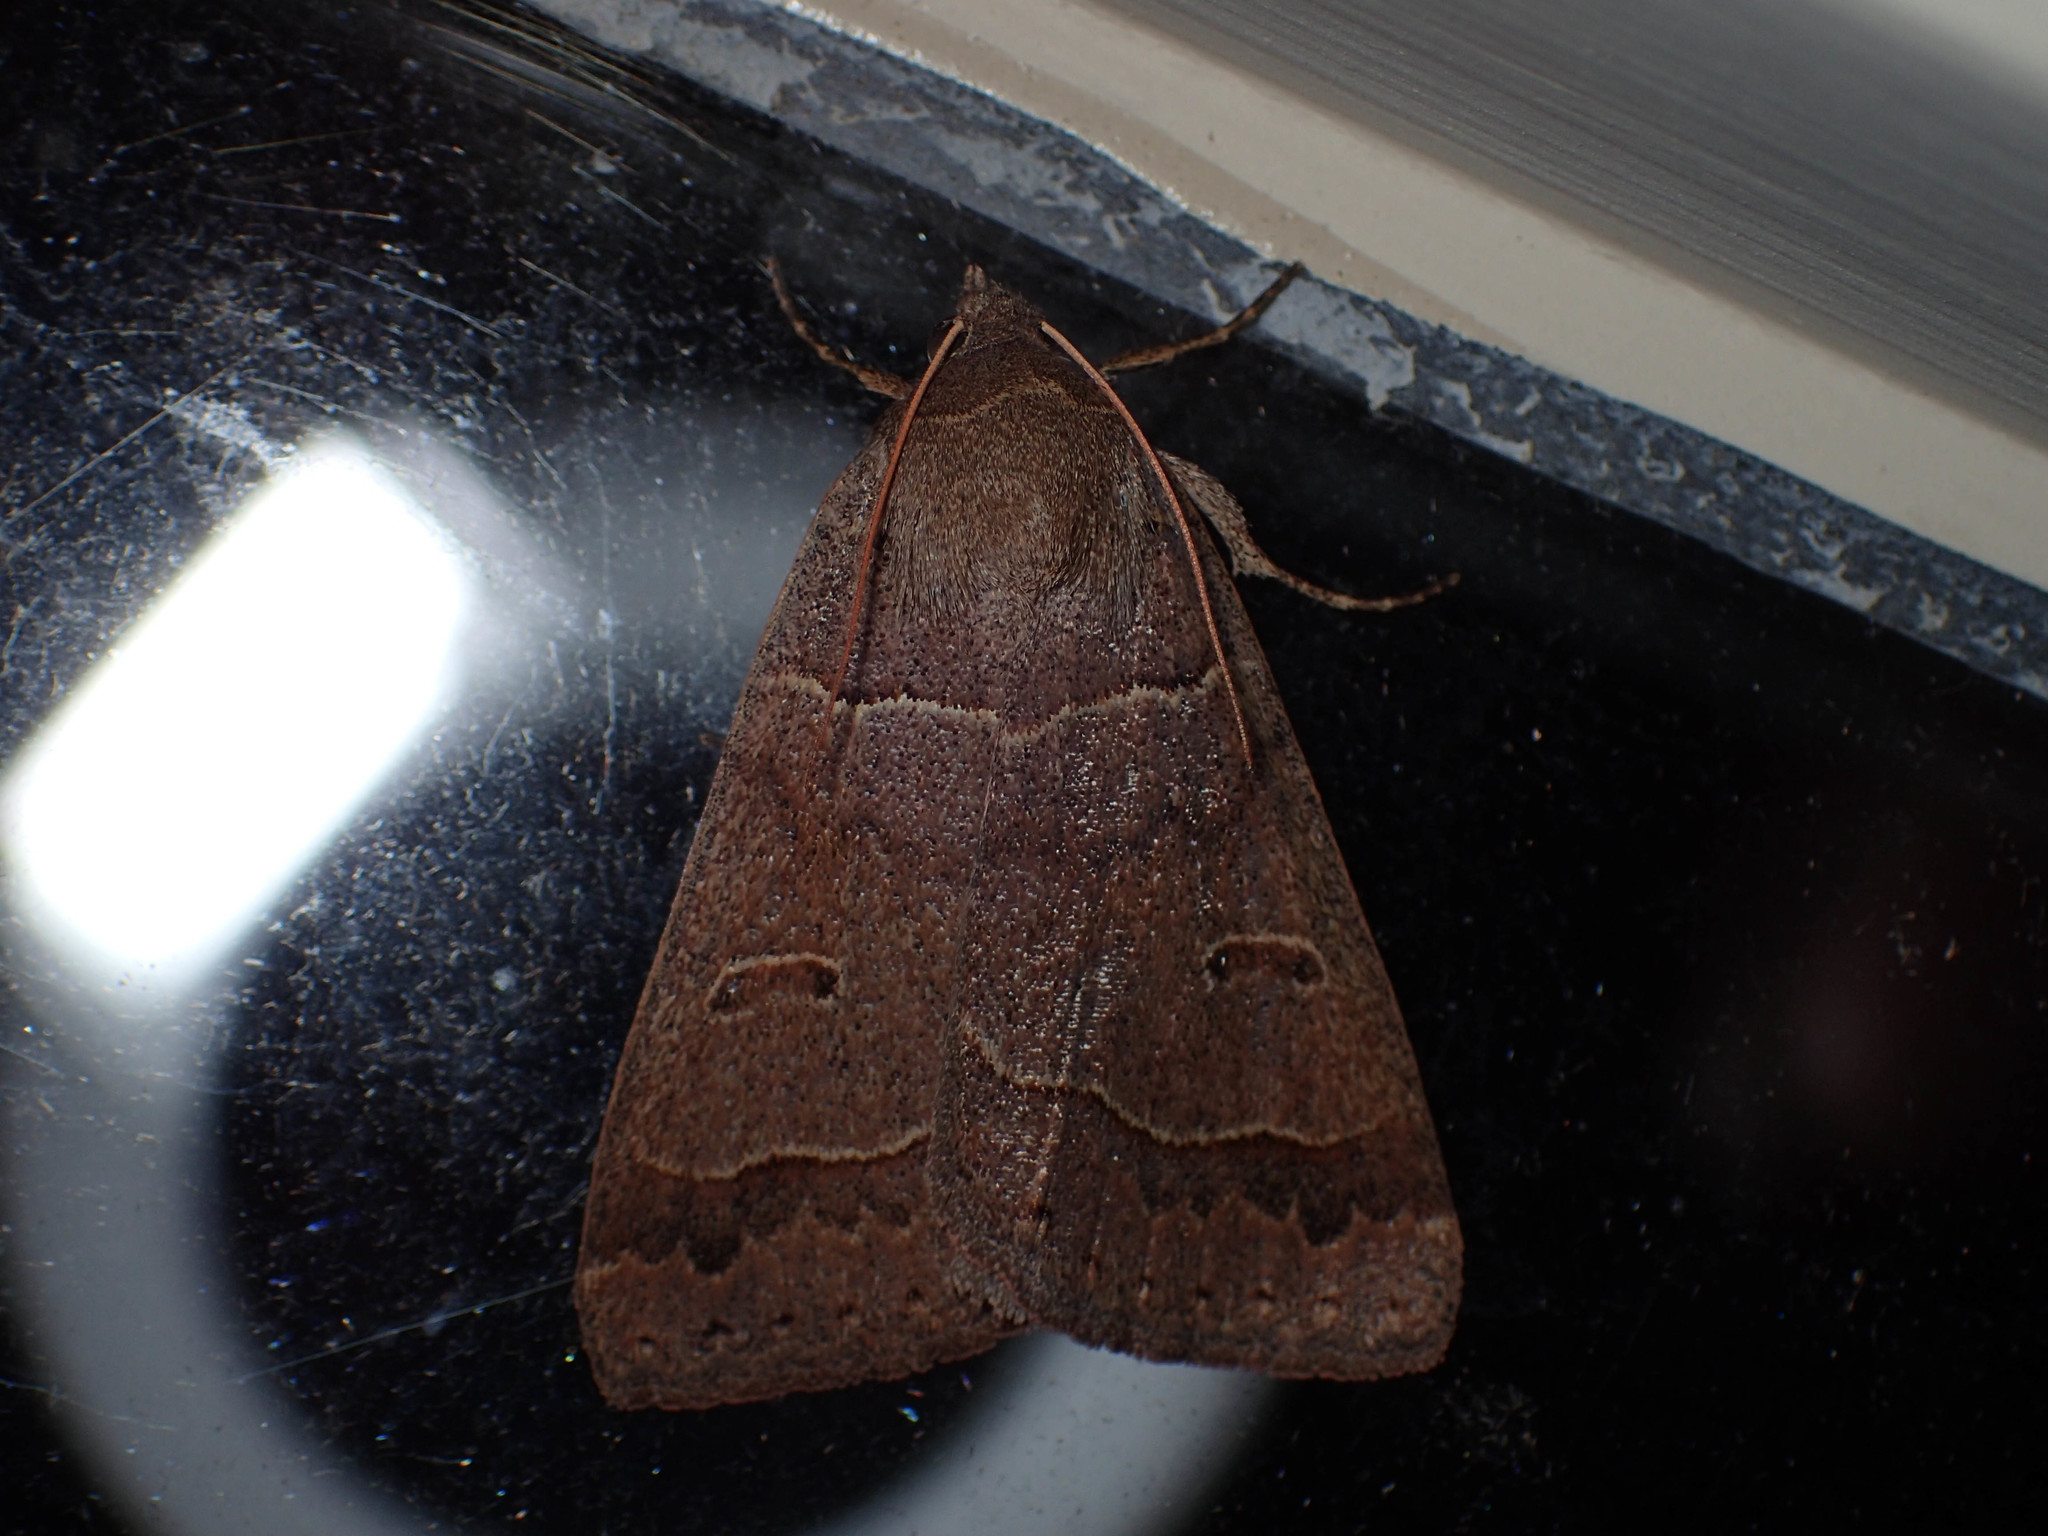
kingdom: Animalia
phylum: Arthropoda
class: Insecta
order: Lepidoptera
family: Erebidae
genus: Phoberia
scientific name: Phoberia atomaris
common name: Common oak moth
